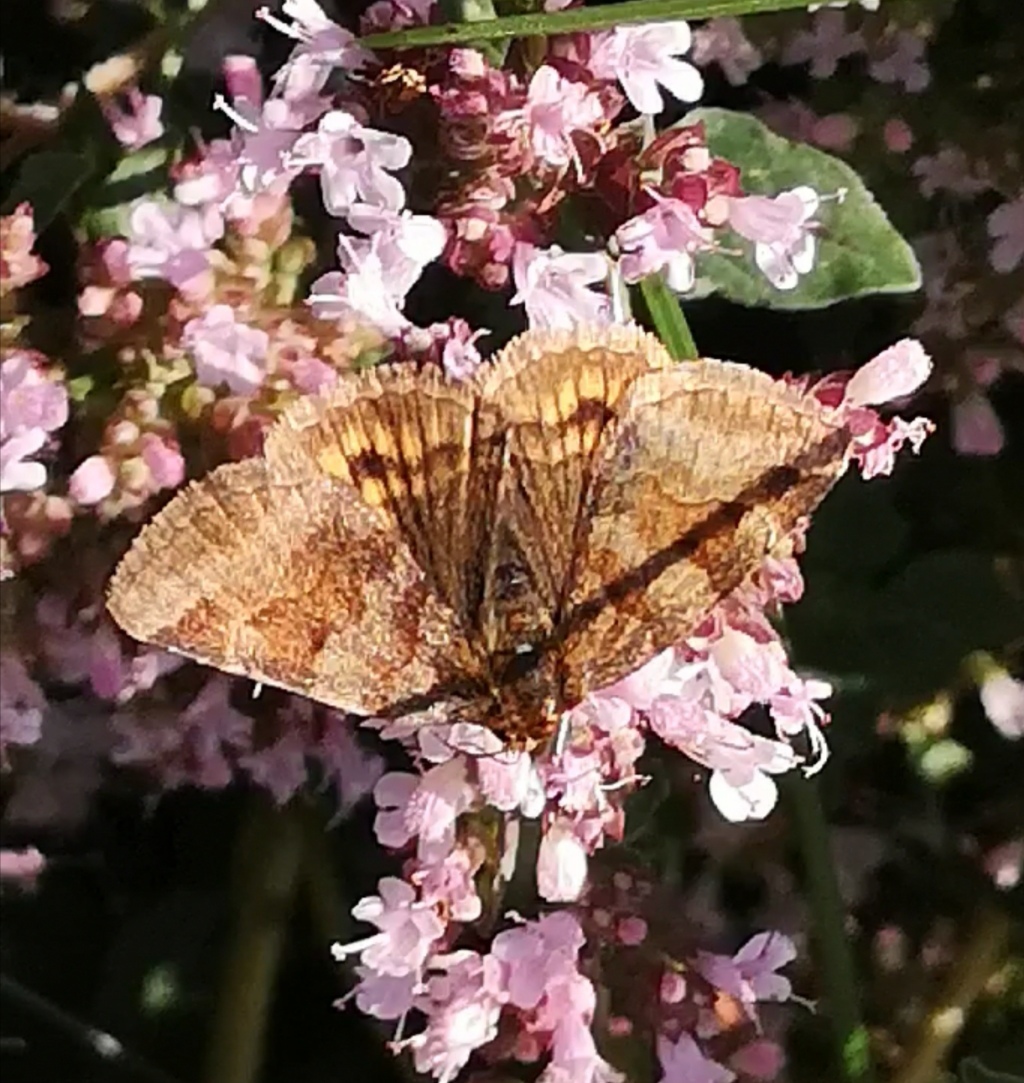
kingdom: Animalia
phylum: Arthropoda
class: Insecta
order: Lepidoptera
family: Erebidae
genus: Euclidia
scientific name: Euclidia glyphica
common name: Burnet companion
